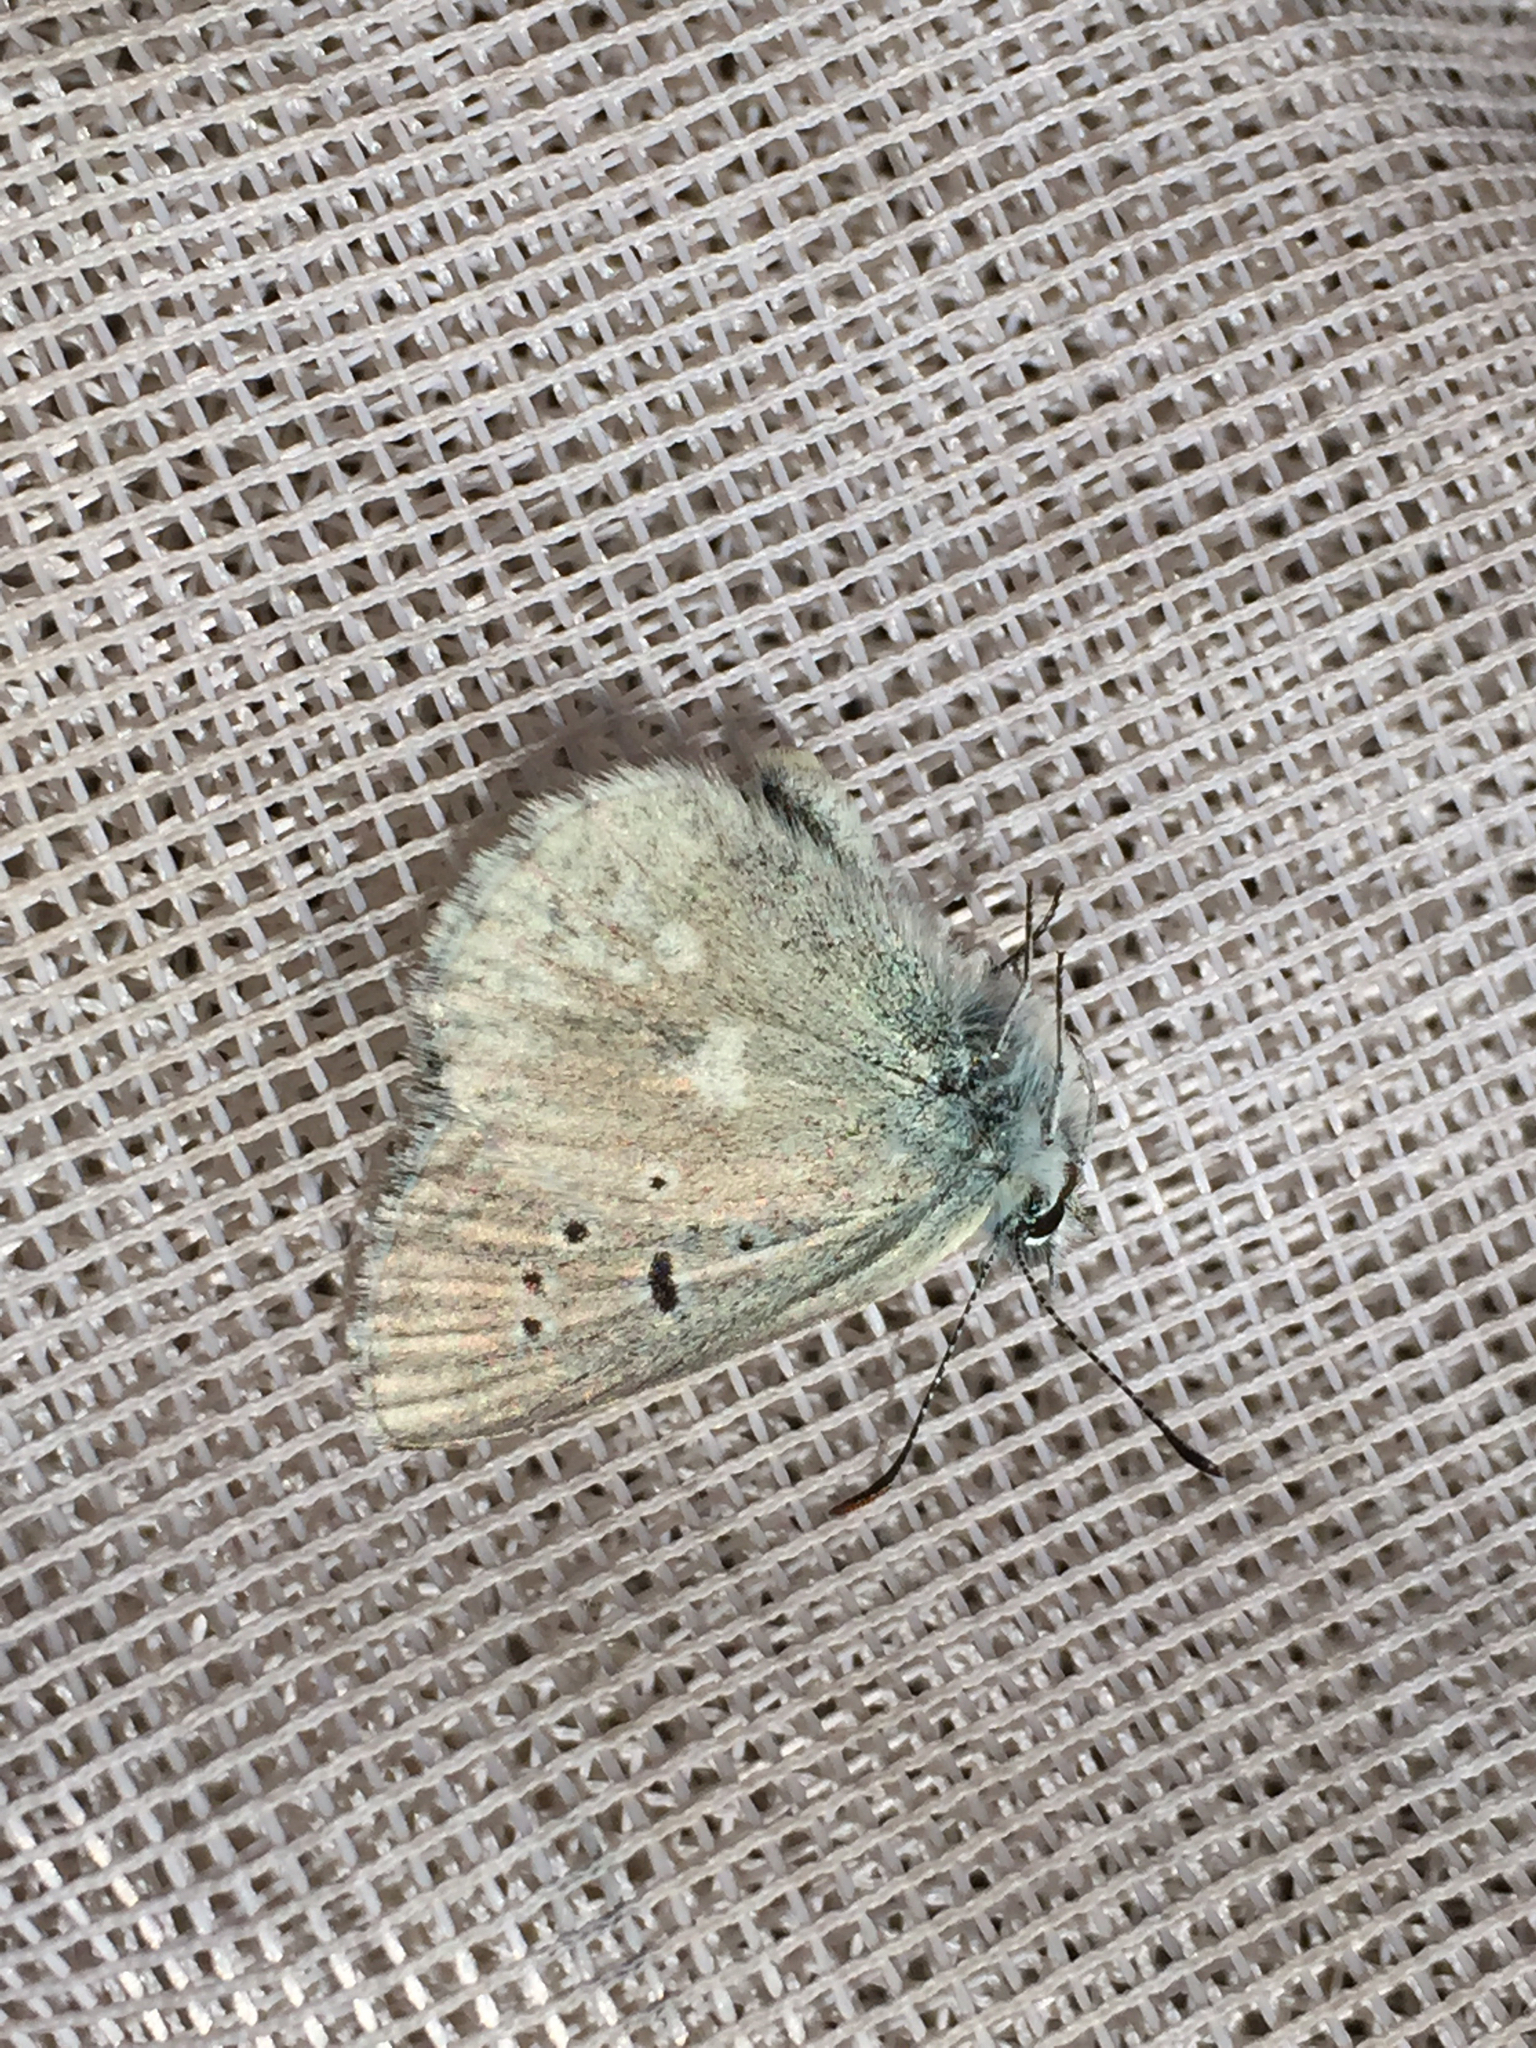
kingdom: Animalia
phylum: Arthropoda
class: Insecta
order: Lepidoptera
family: Lycaenidae
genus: Agriades
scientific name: Agriades glandon
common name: Glandon blue
